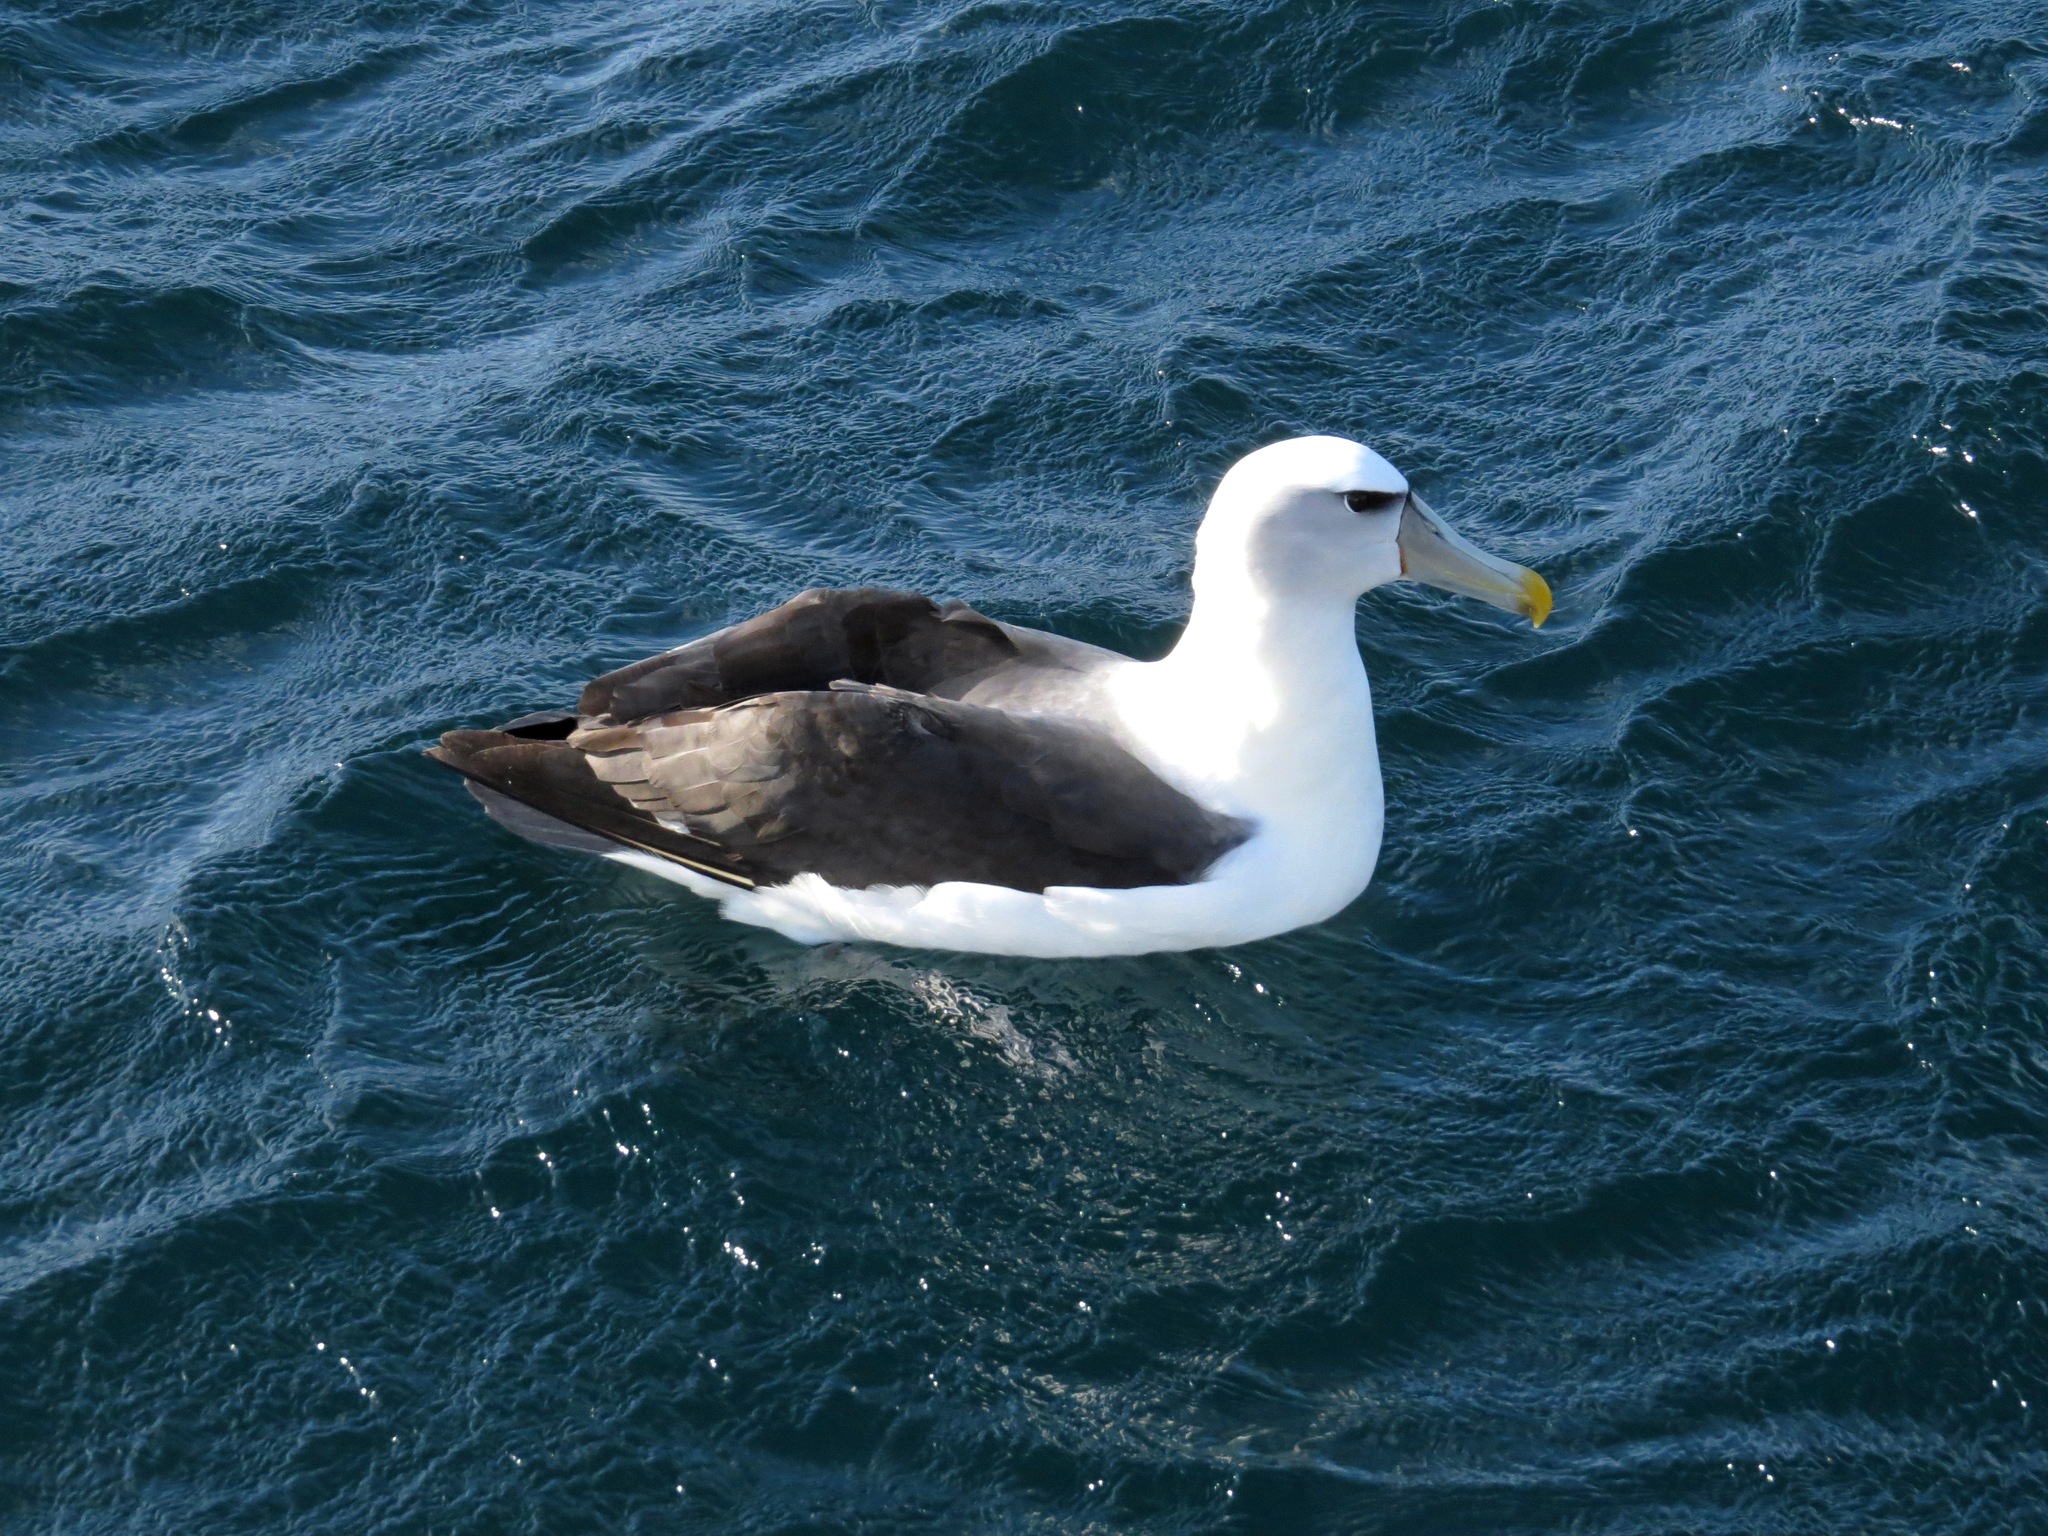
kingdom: Animalia
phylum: Chordata
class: Aves
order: Procellariiformes
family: Diomedeidae
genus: Thalassarche
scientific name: Thalassarche cauta
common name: Shy albatross
